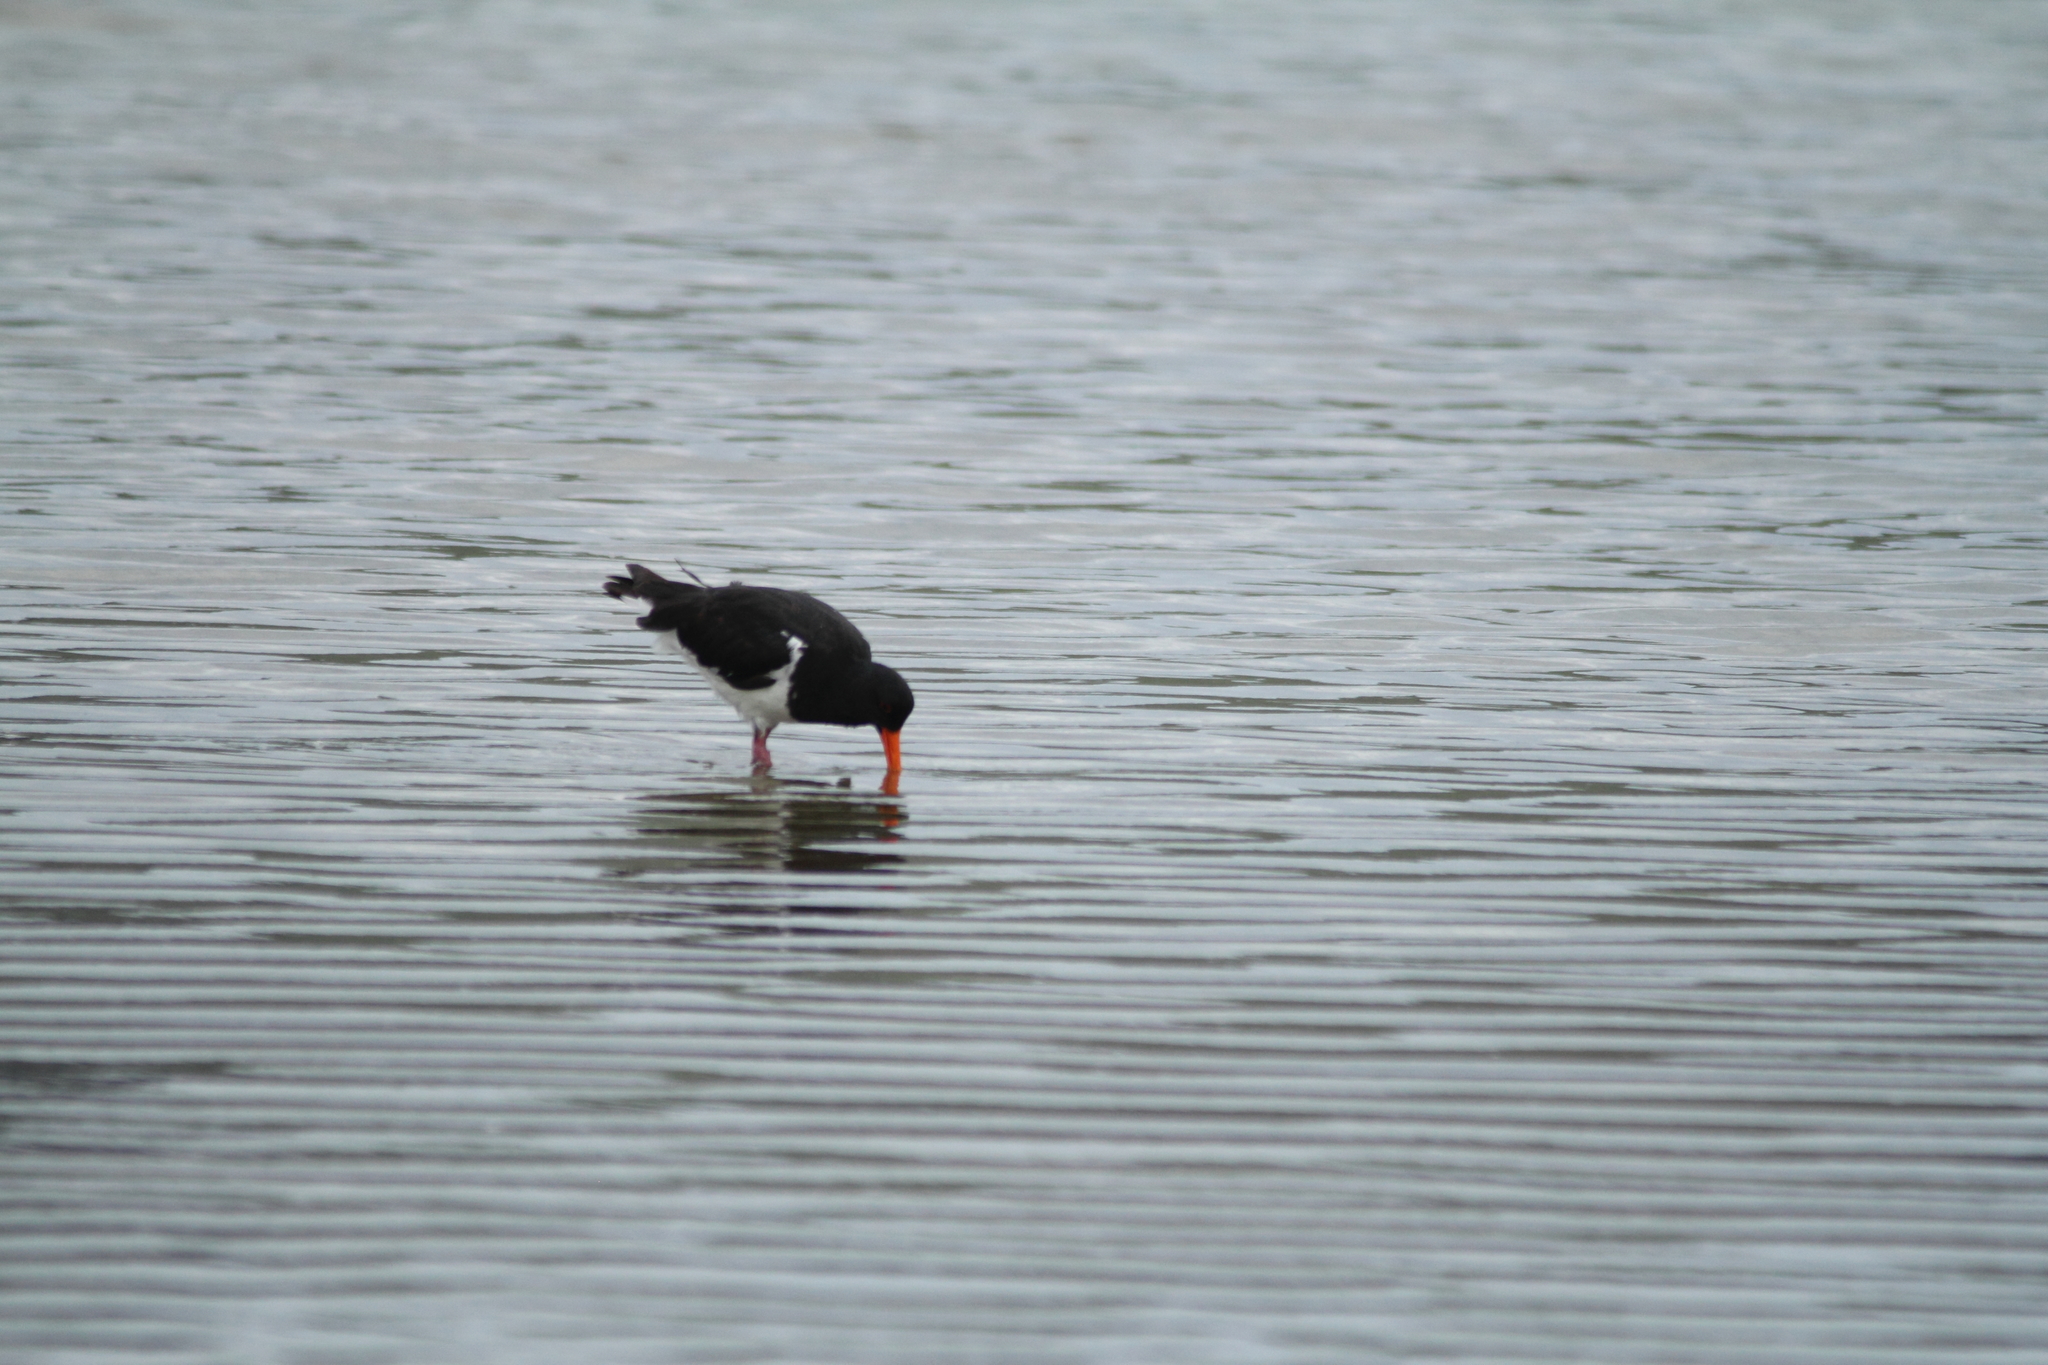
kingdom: Animalia
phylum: Chordata
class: Aves
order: Charadriiformes
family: Haematopodidae
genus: Haematopus
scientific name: Haematopus finschi
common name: South island oystercatcher
